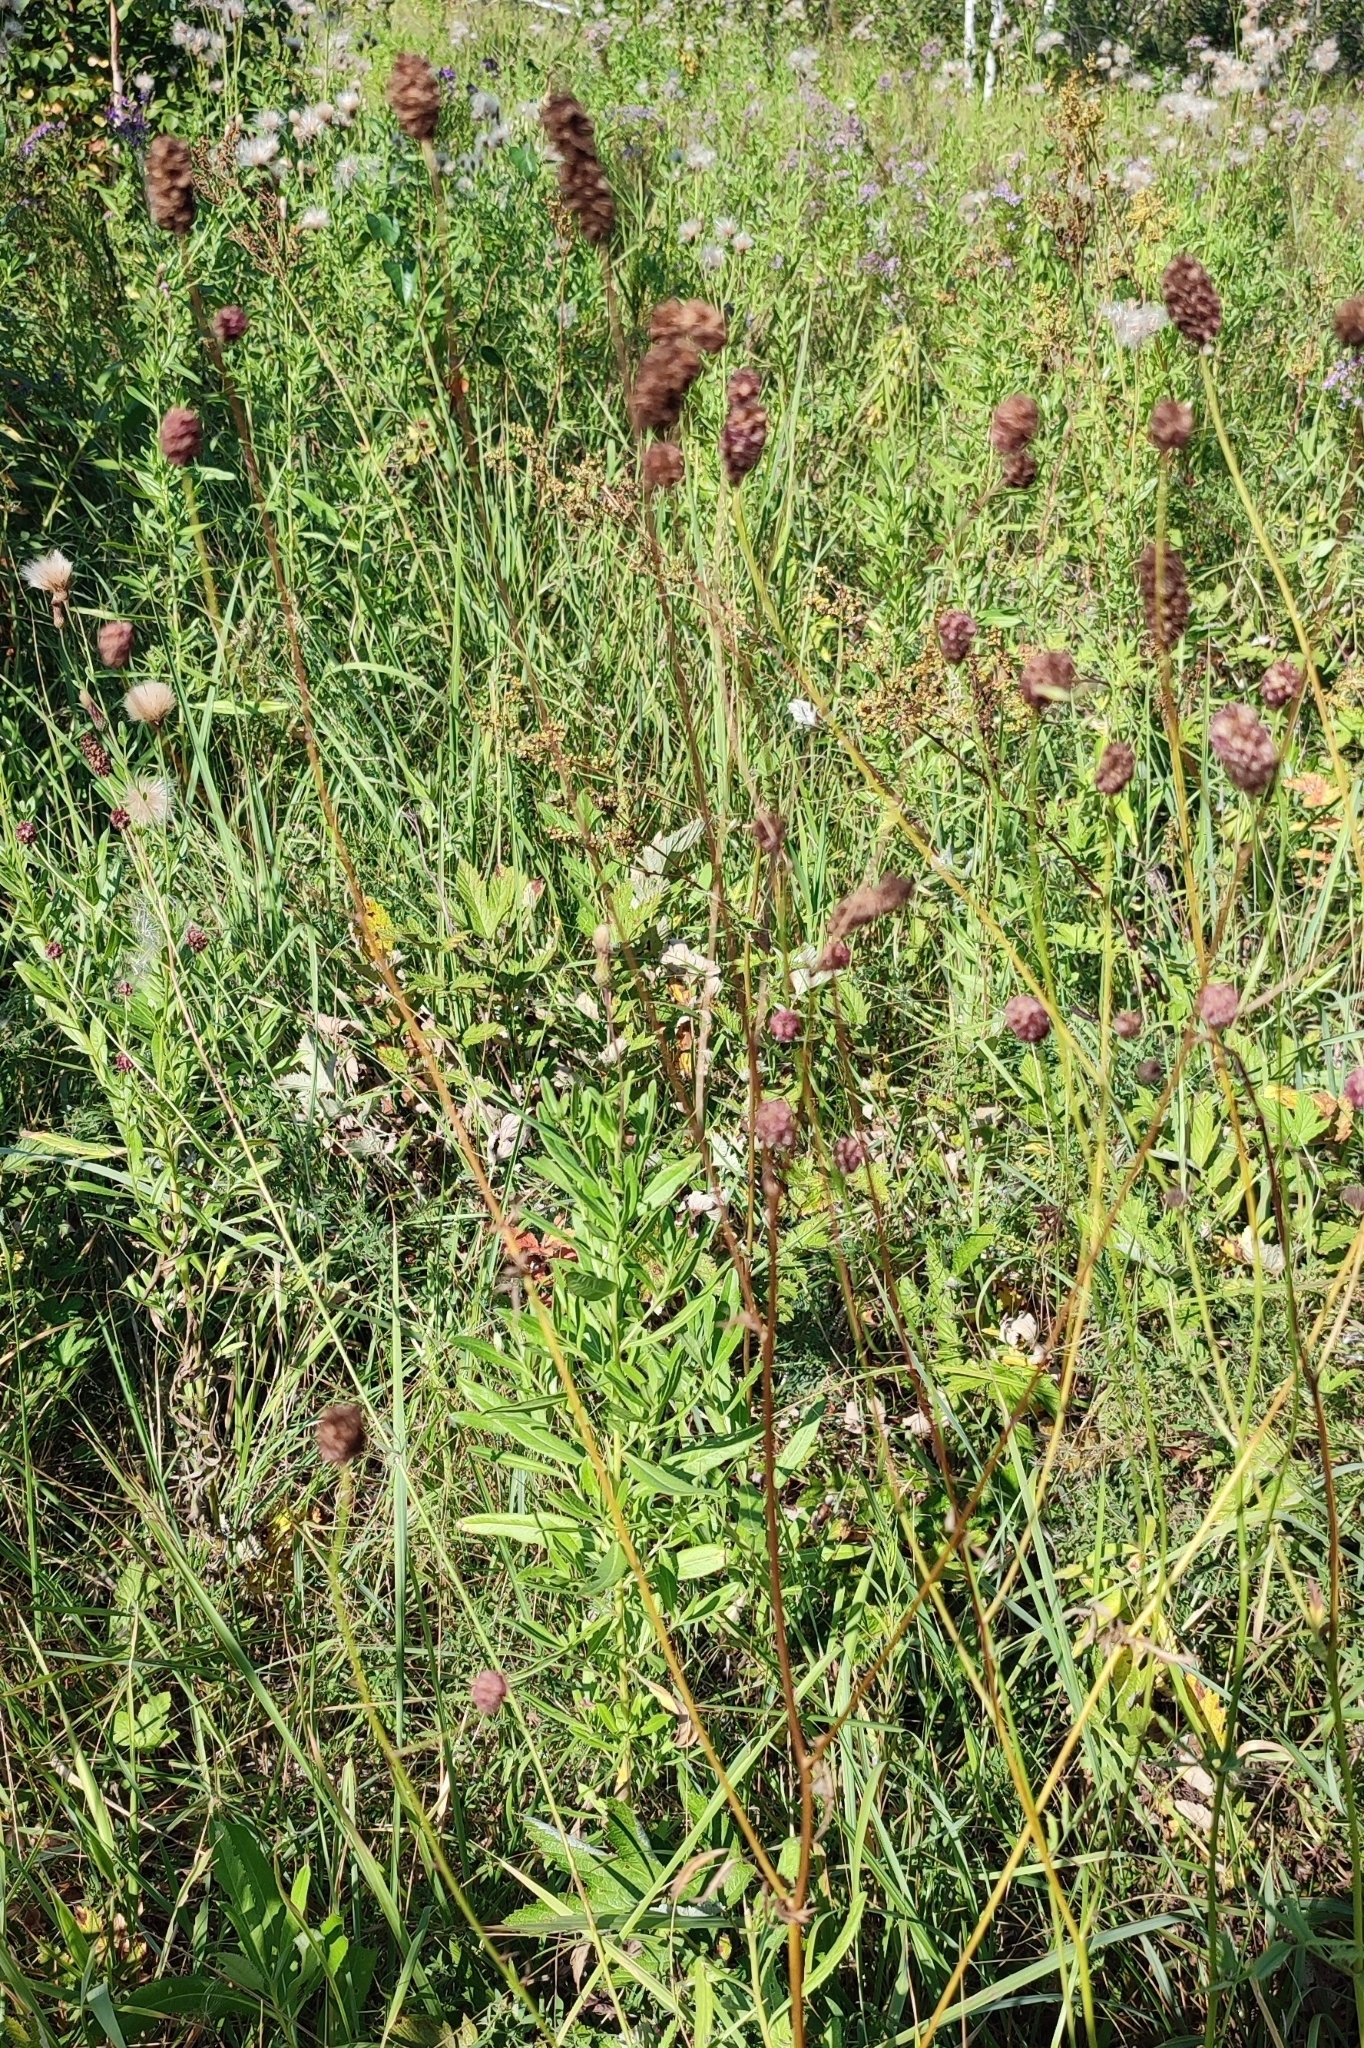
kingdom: Plantae
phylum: Tracheophyta
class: Magnoliopsida
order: Rosales
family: Rosaceae
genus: Sanguisorba
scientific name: Sanguisorba officinalis
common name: Great burnet
